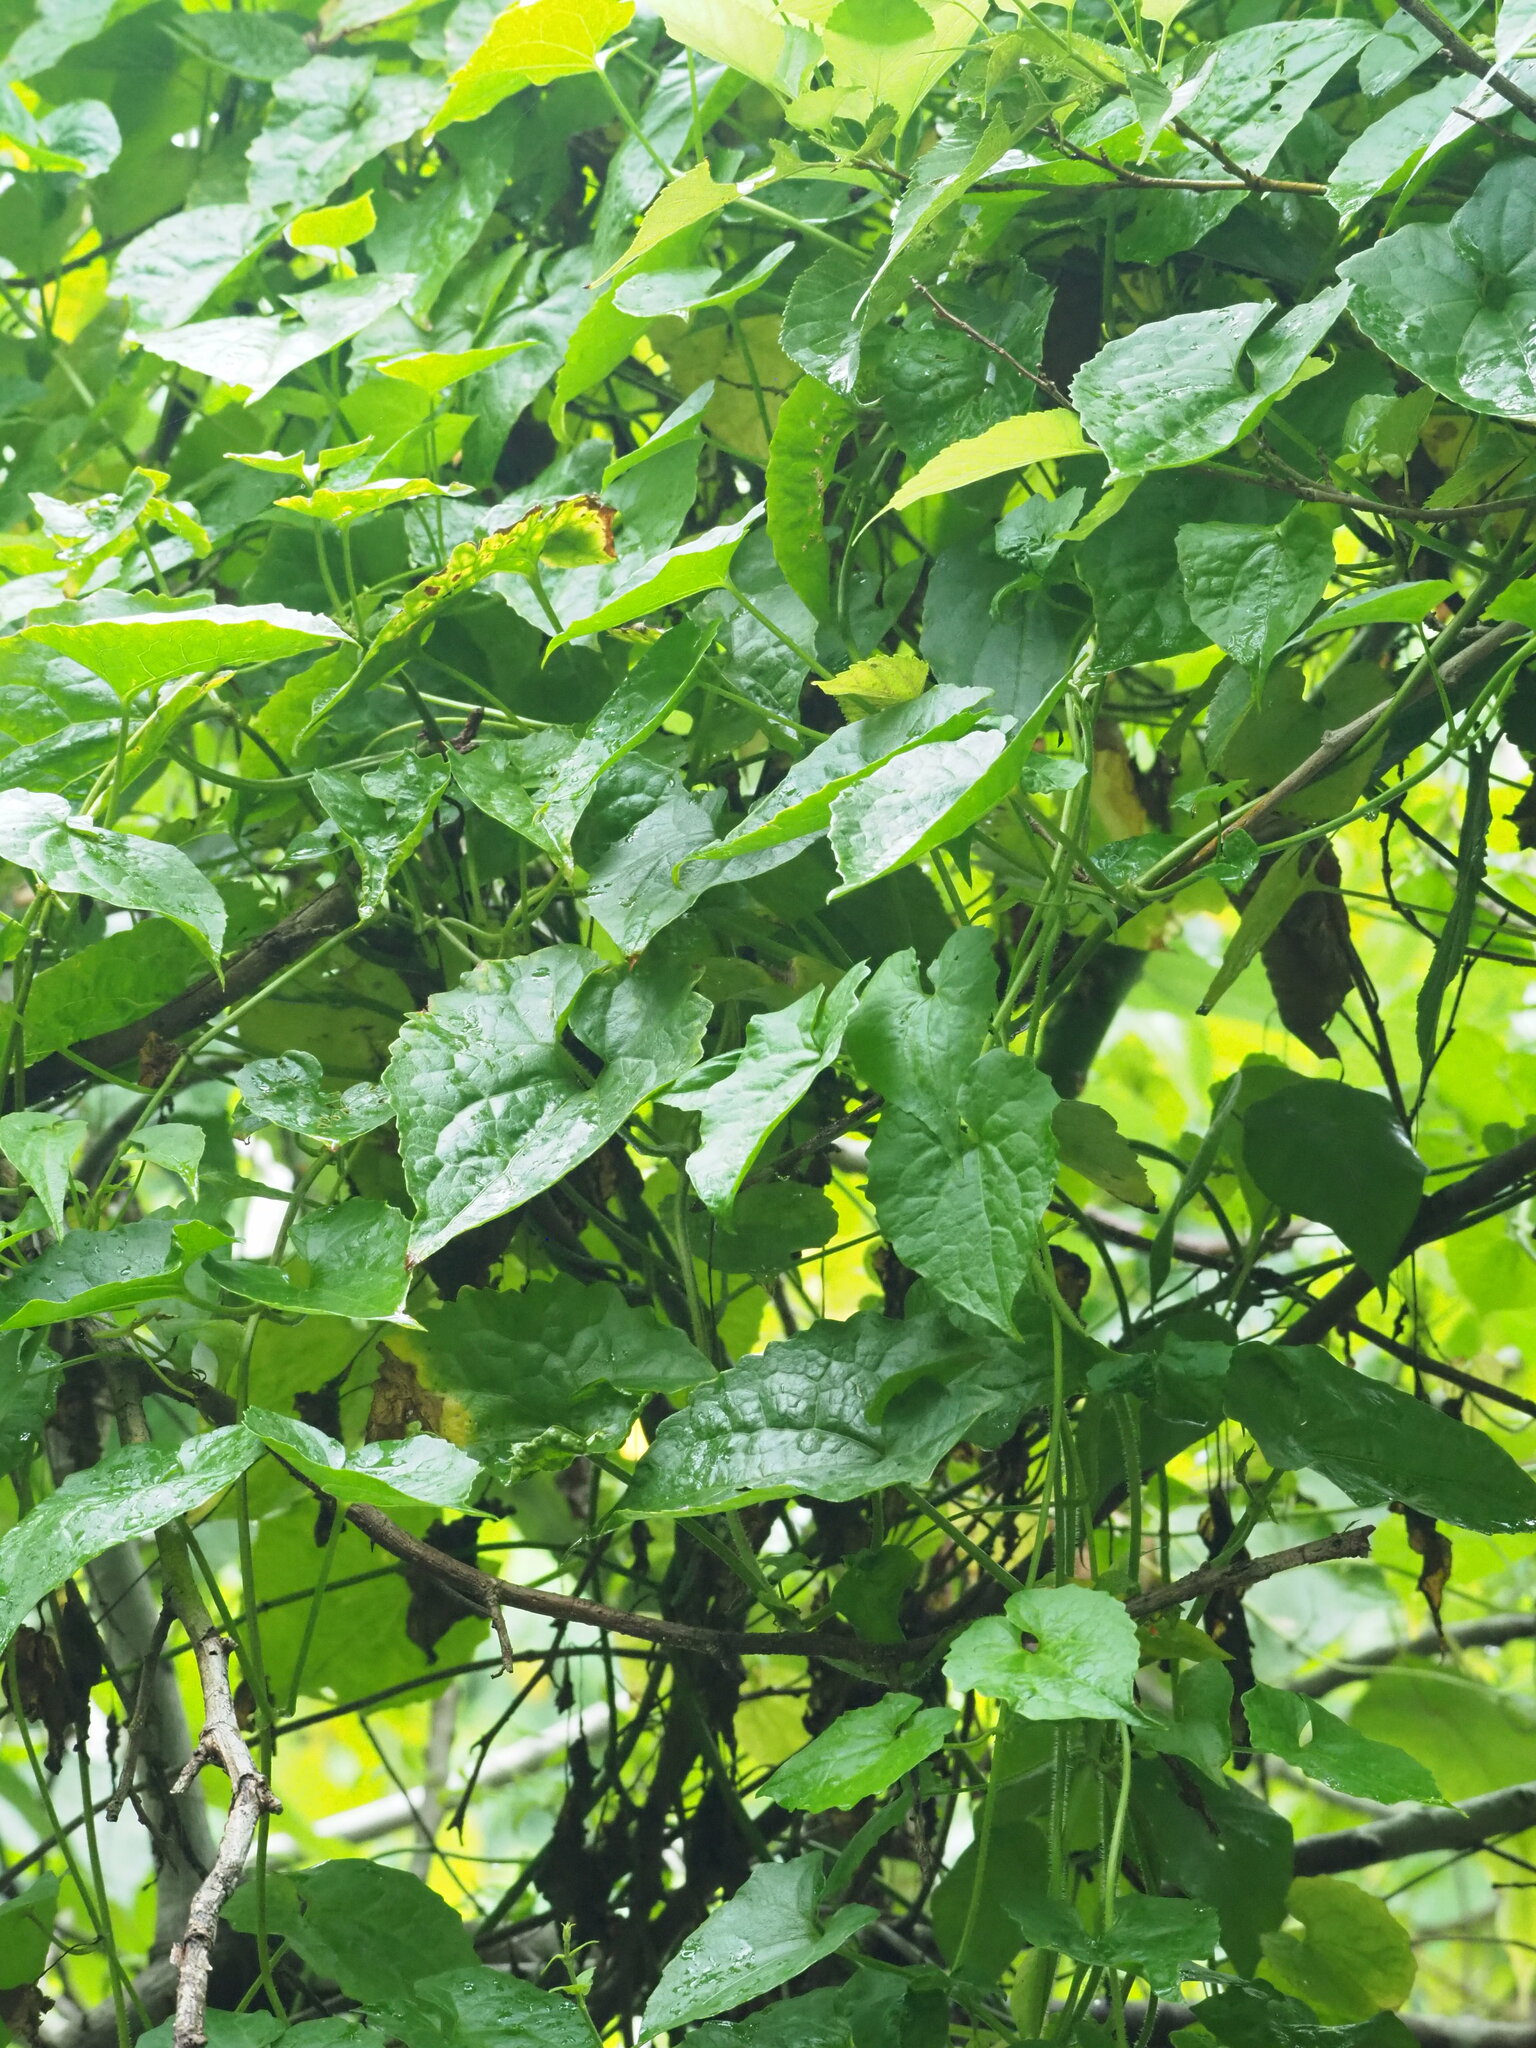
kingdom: Plantae
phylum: Tracheophyta
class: Magnoliopsida
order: Asterales
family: Asteraceae
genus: Mikania
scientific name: Mikania micrantha
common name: Mile-a-minute
